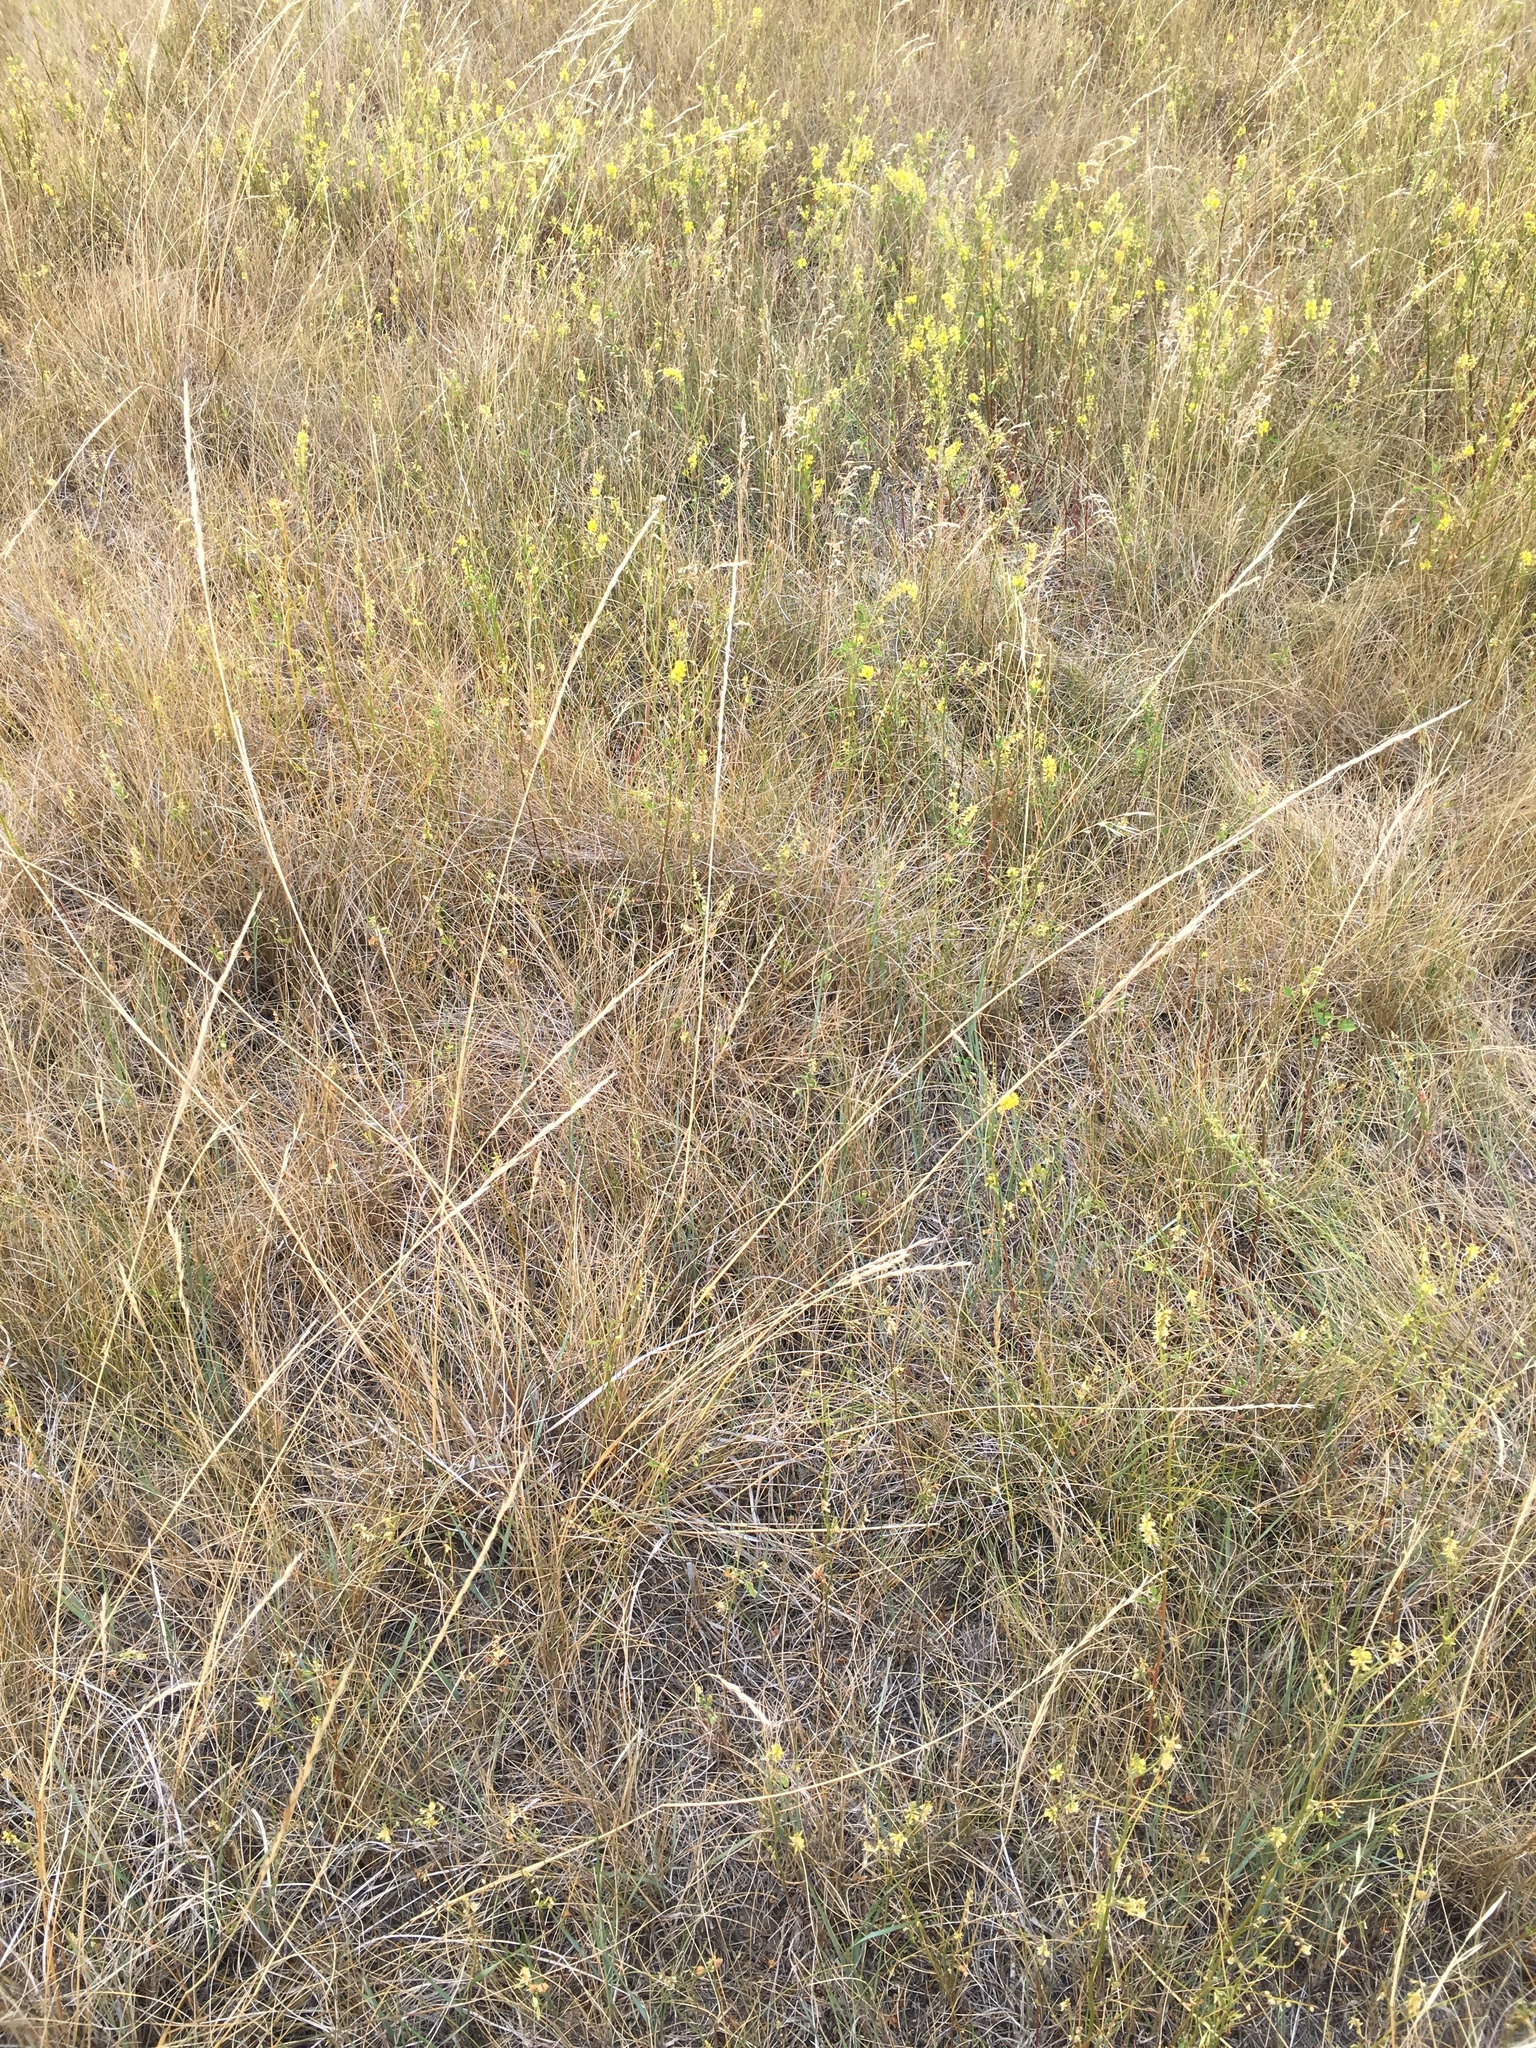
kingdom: Plantae
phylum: Tracheophyta
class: Liliopsida
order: Poales
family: Poaceae
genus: Nassella
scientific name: Nassella viridula
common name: Green needlegrass
